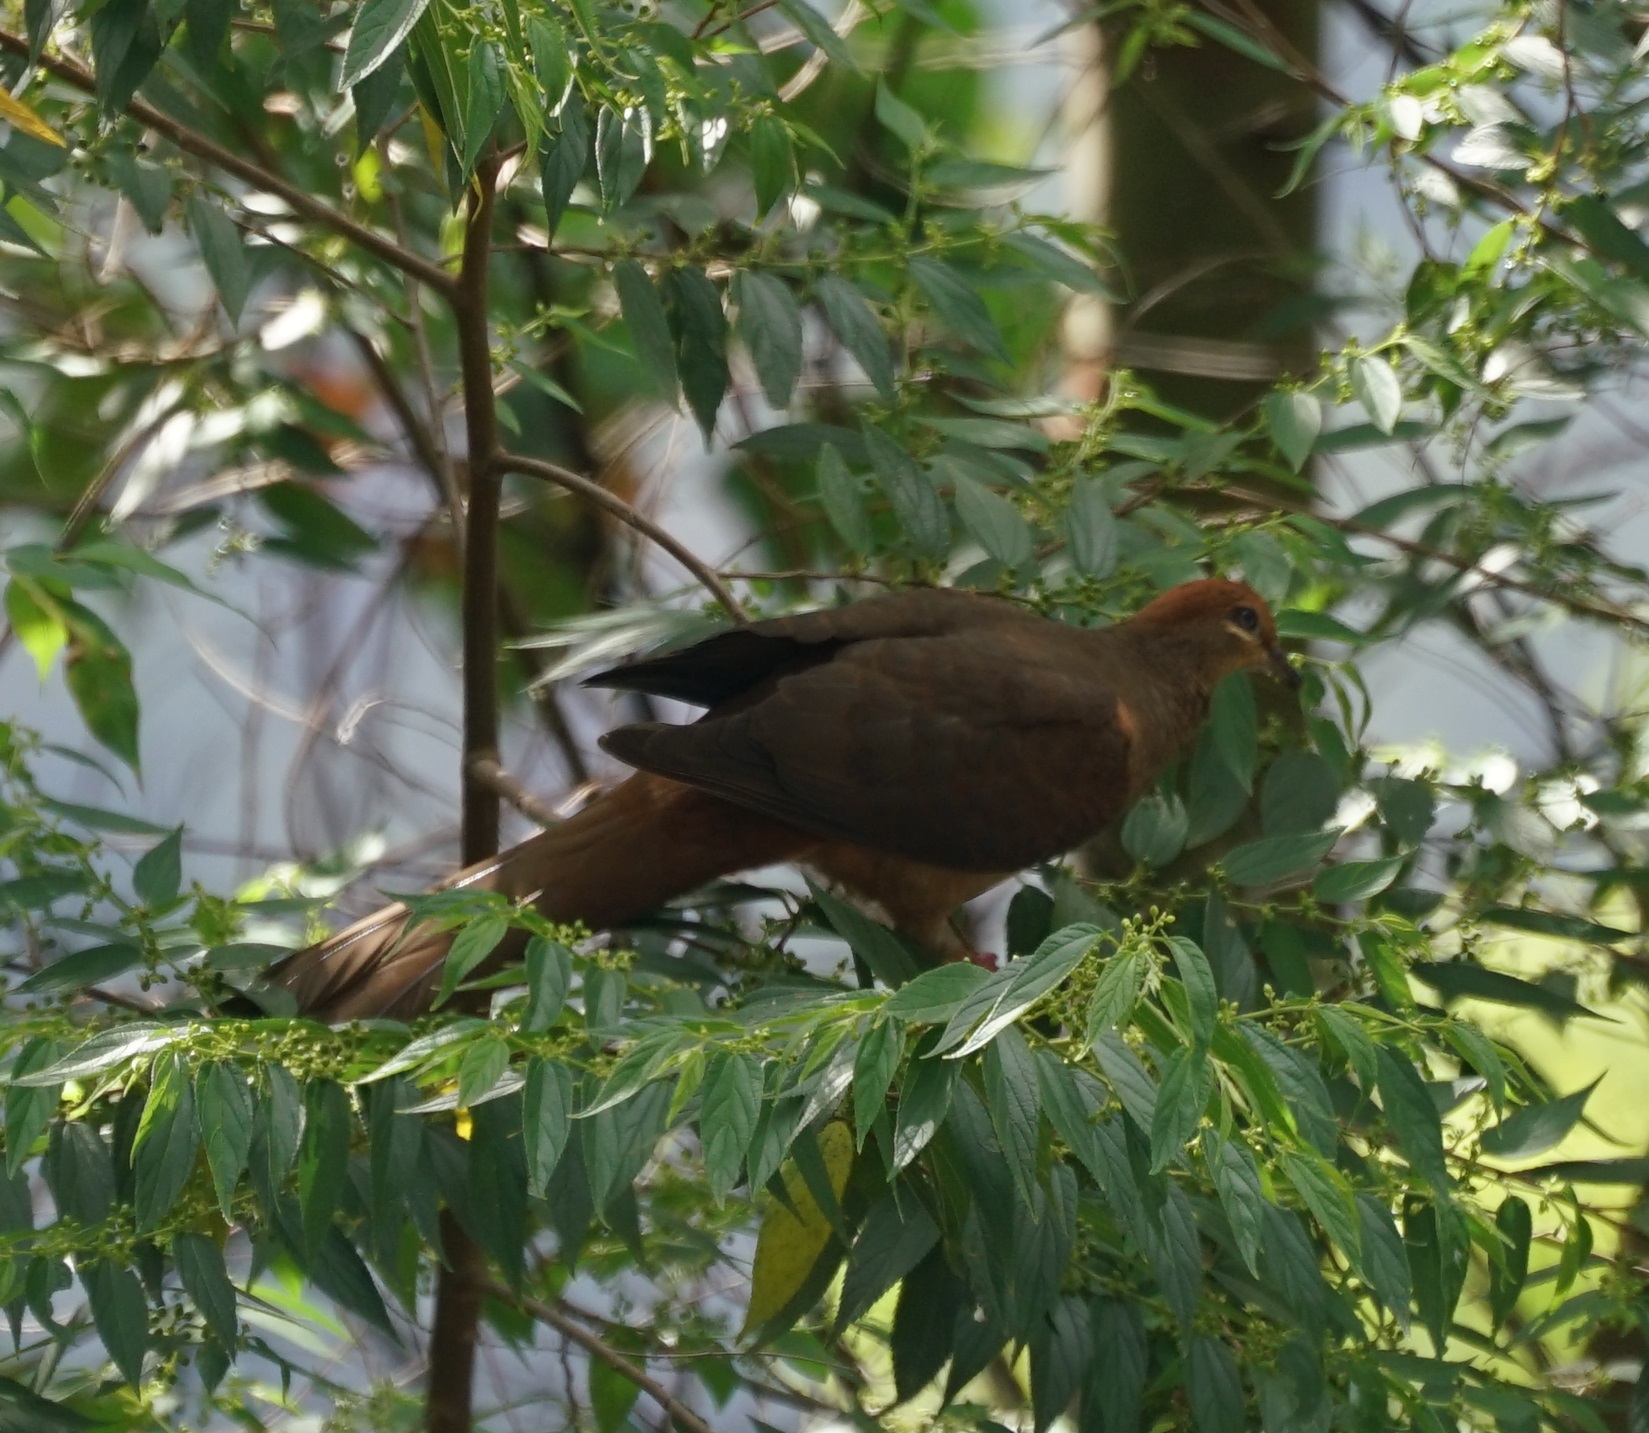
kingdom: Animalia
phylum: Chordata
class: Aves
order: Columbiformes
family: Columbidae
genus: Macropygia
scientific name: Macropygia phasianella
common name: Brown cuckoo-dove
